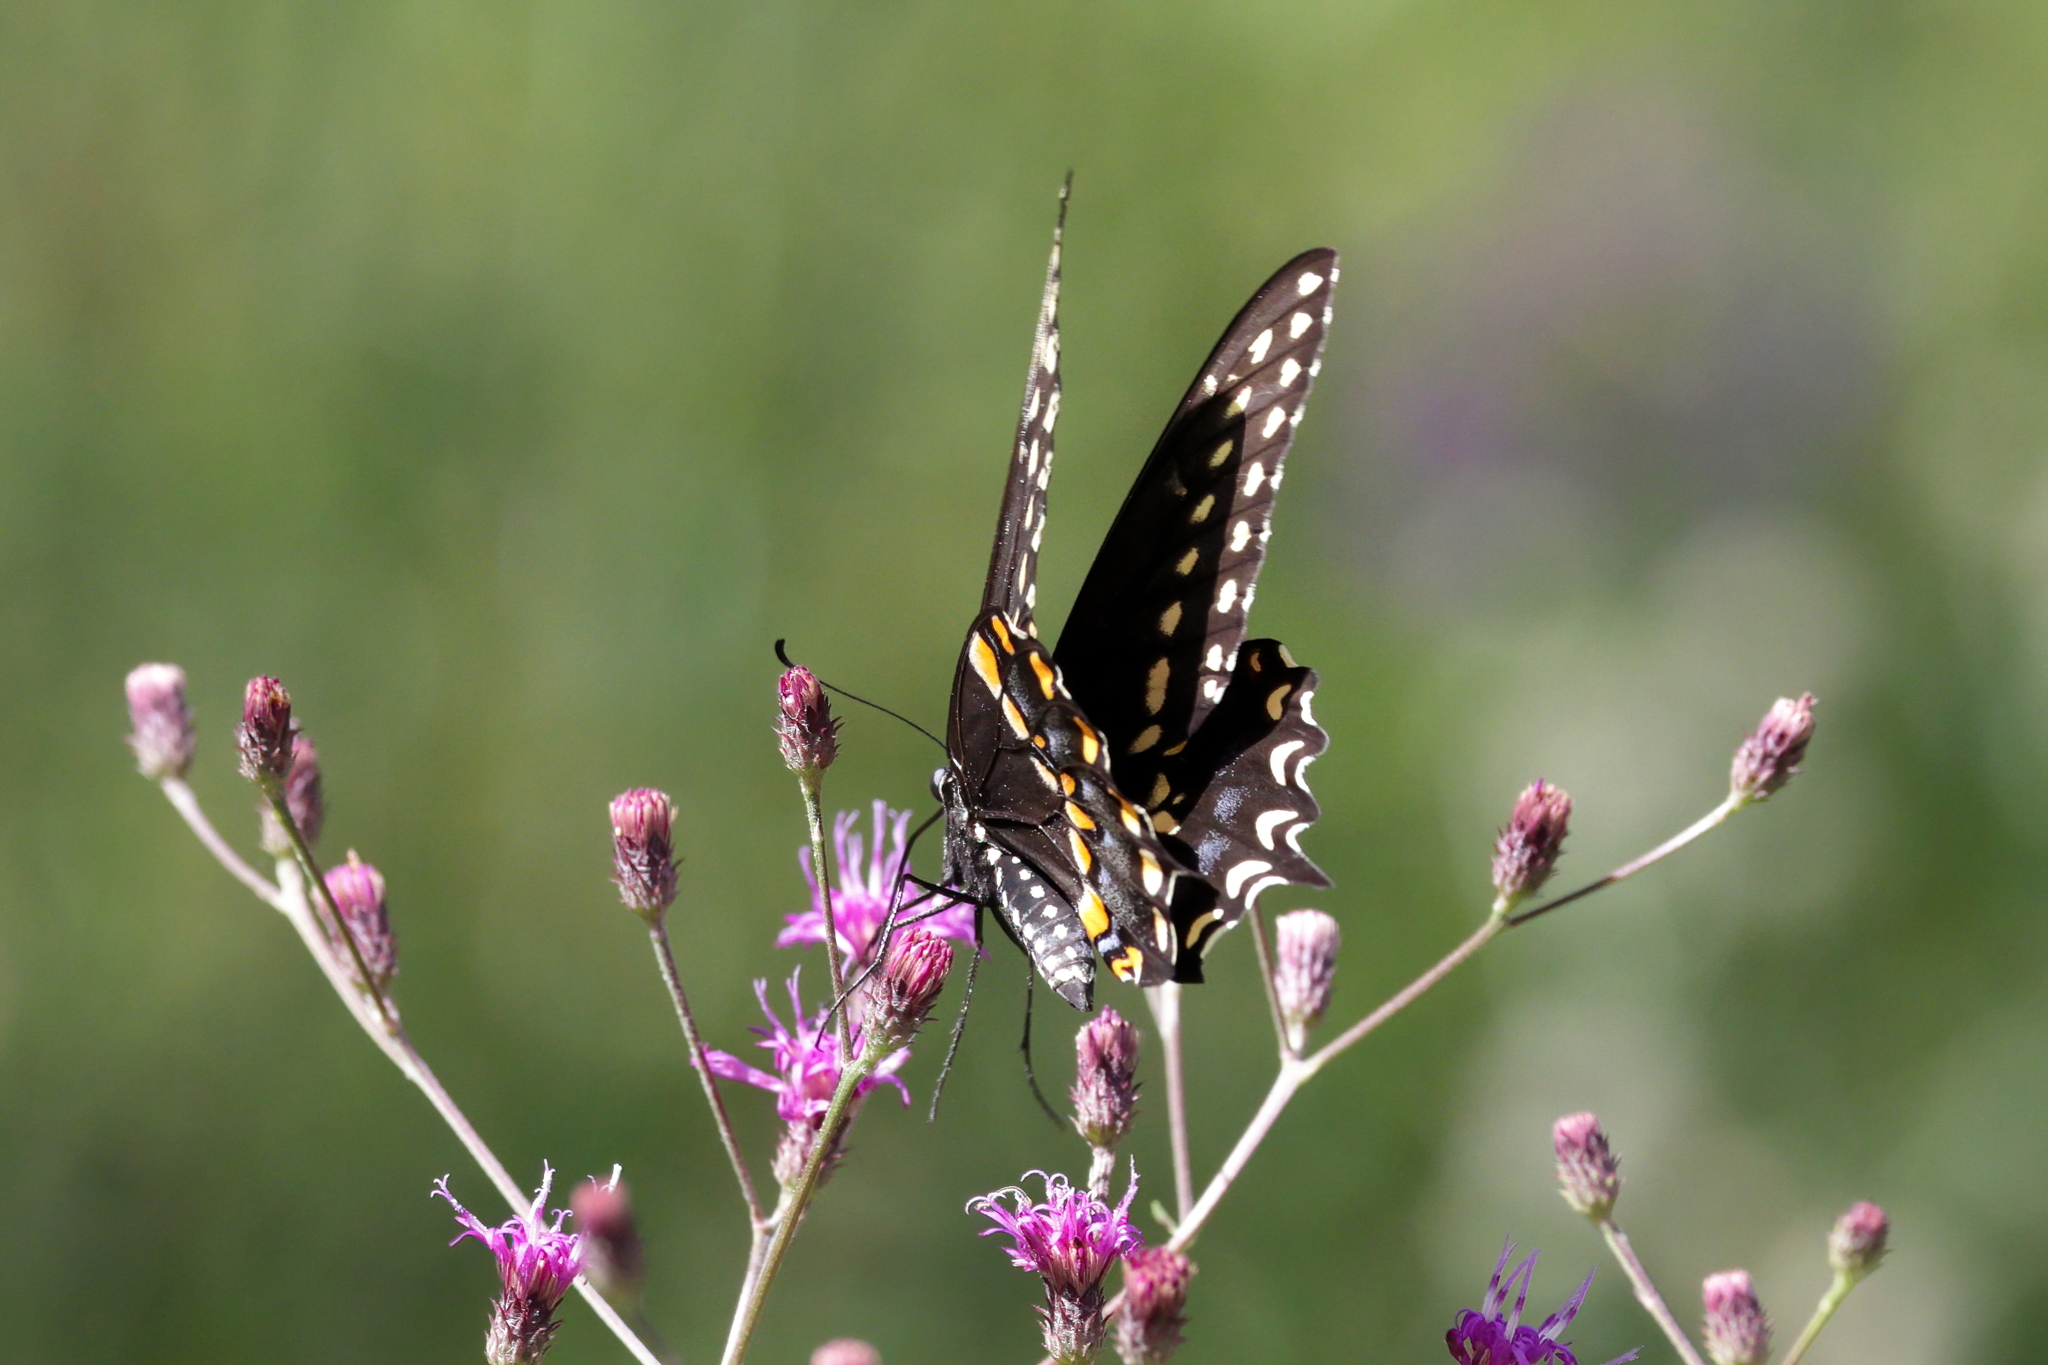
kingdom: Animalia
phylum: Arthropoda
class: Insecta
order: Lepidoptera
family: Papilionidae
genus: Papilio
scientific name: Papilio polyxenes
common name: Black swallowtail
